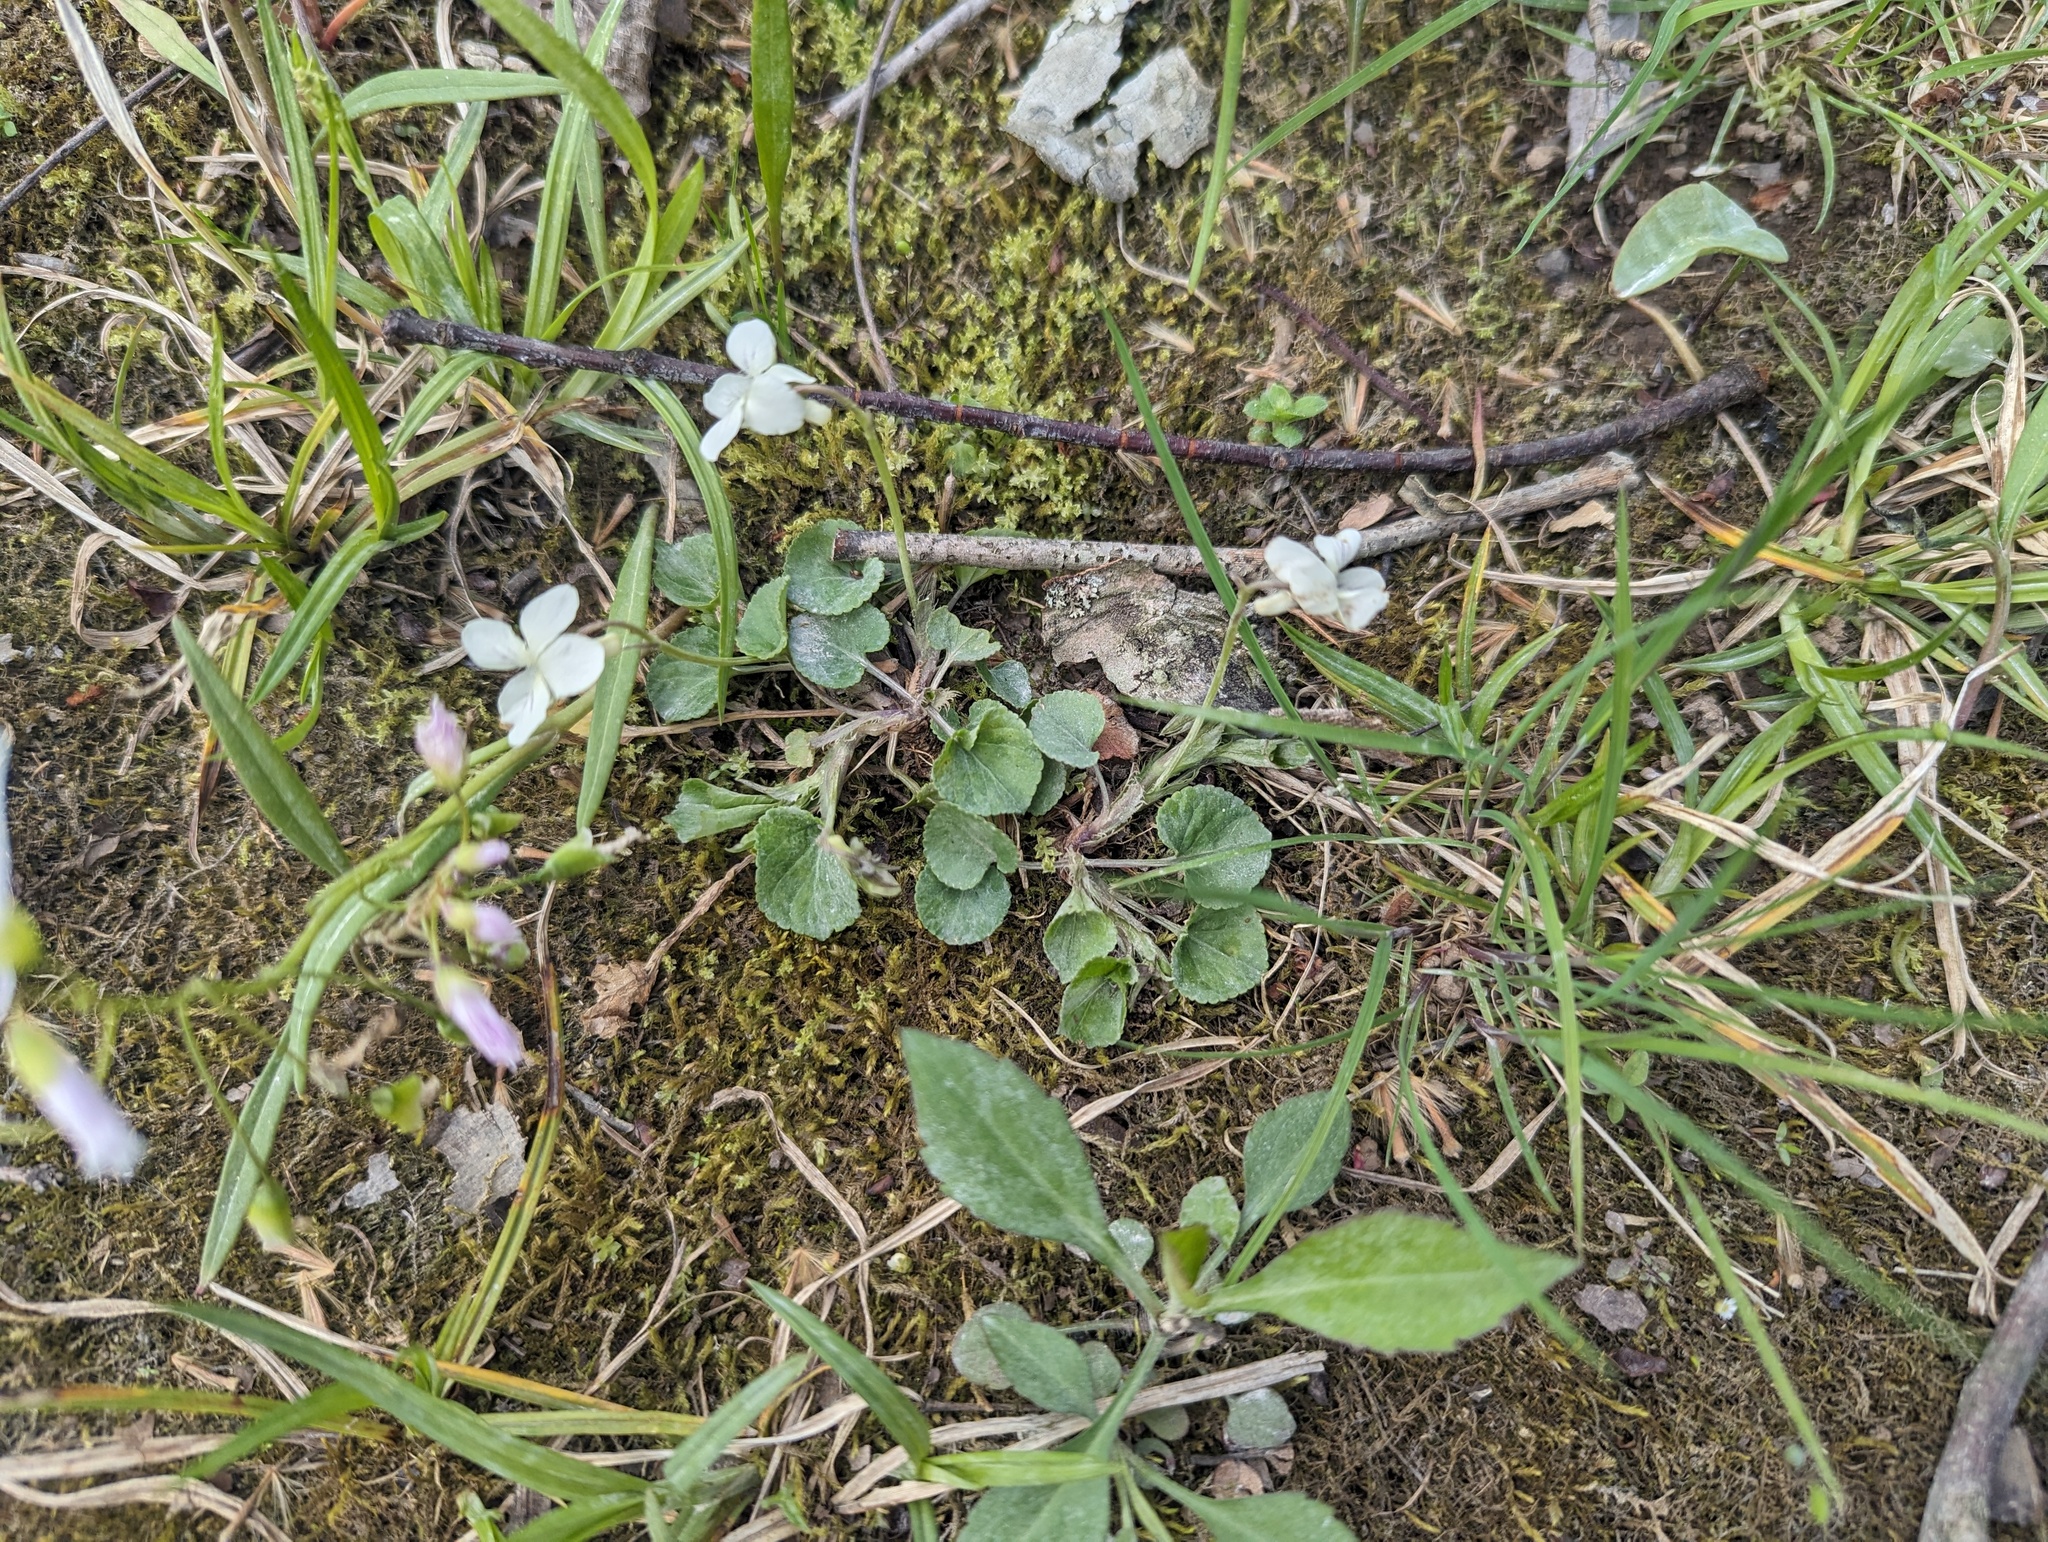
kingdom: Plantae
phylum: Tracheophyta
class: Magnoliopsida
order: Malpighiales
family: Violaceae
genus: Viola
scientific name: Viola striata
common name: Cream violet
